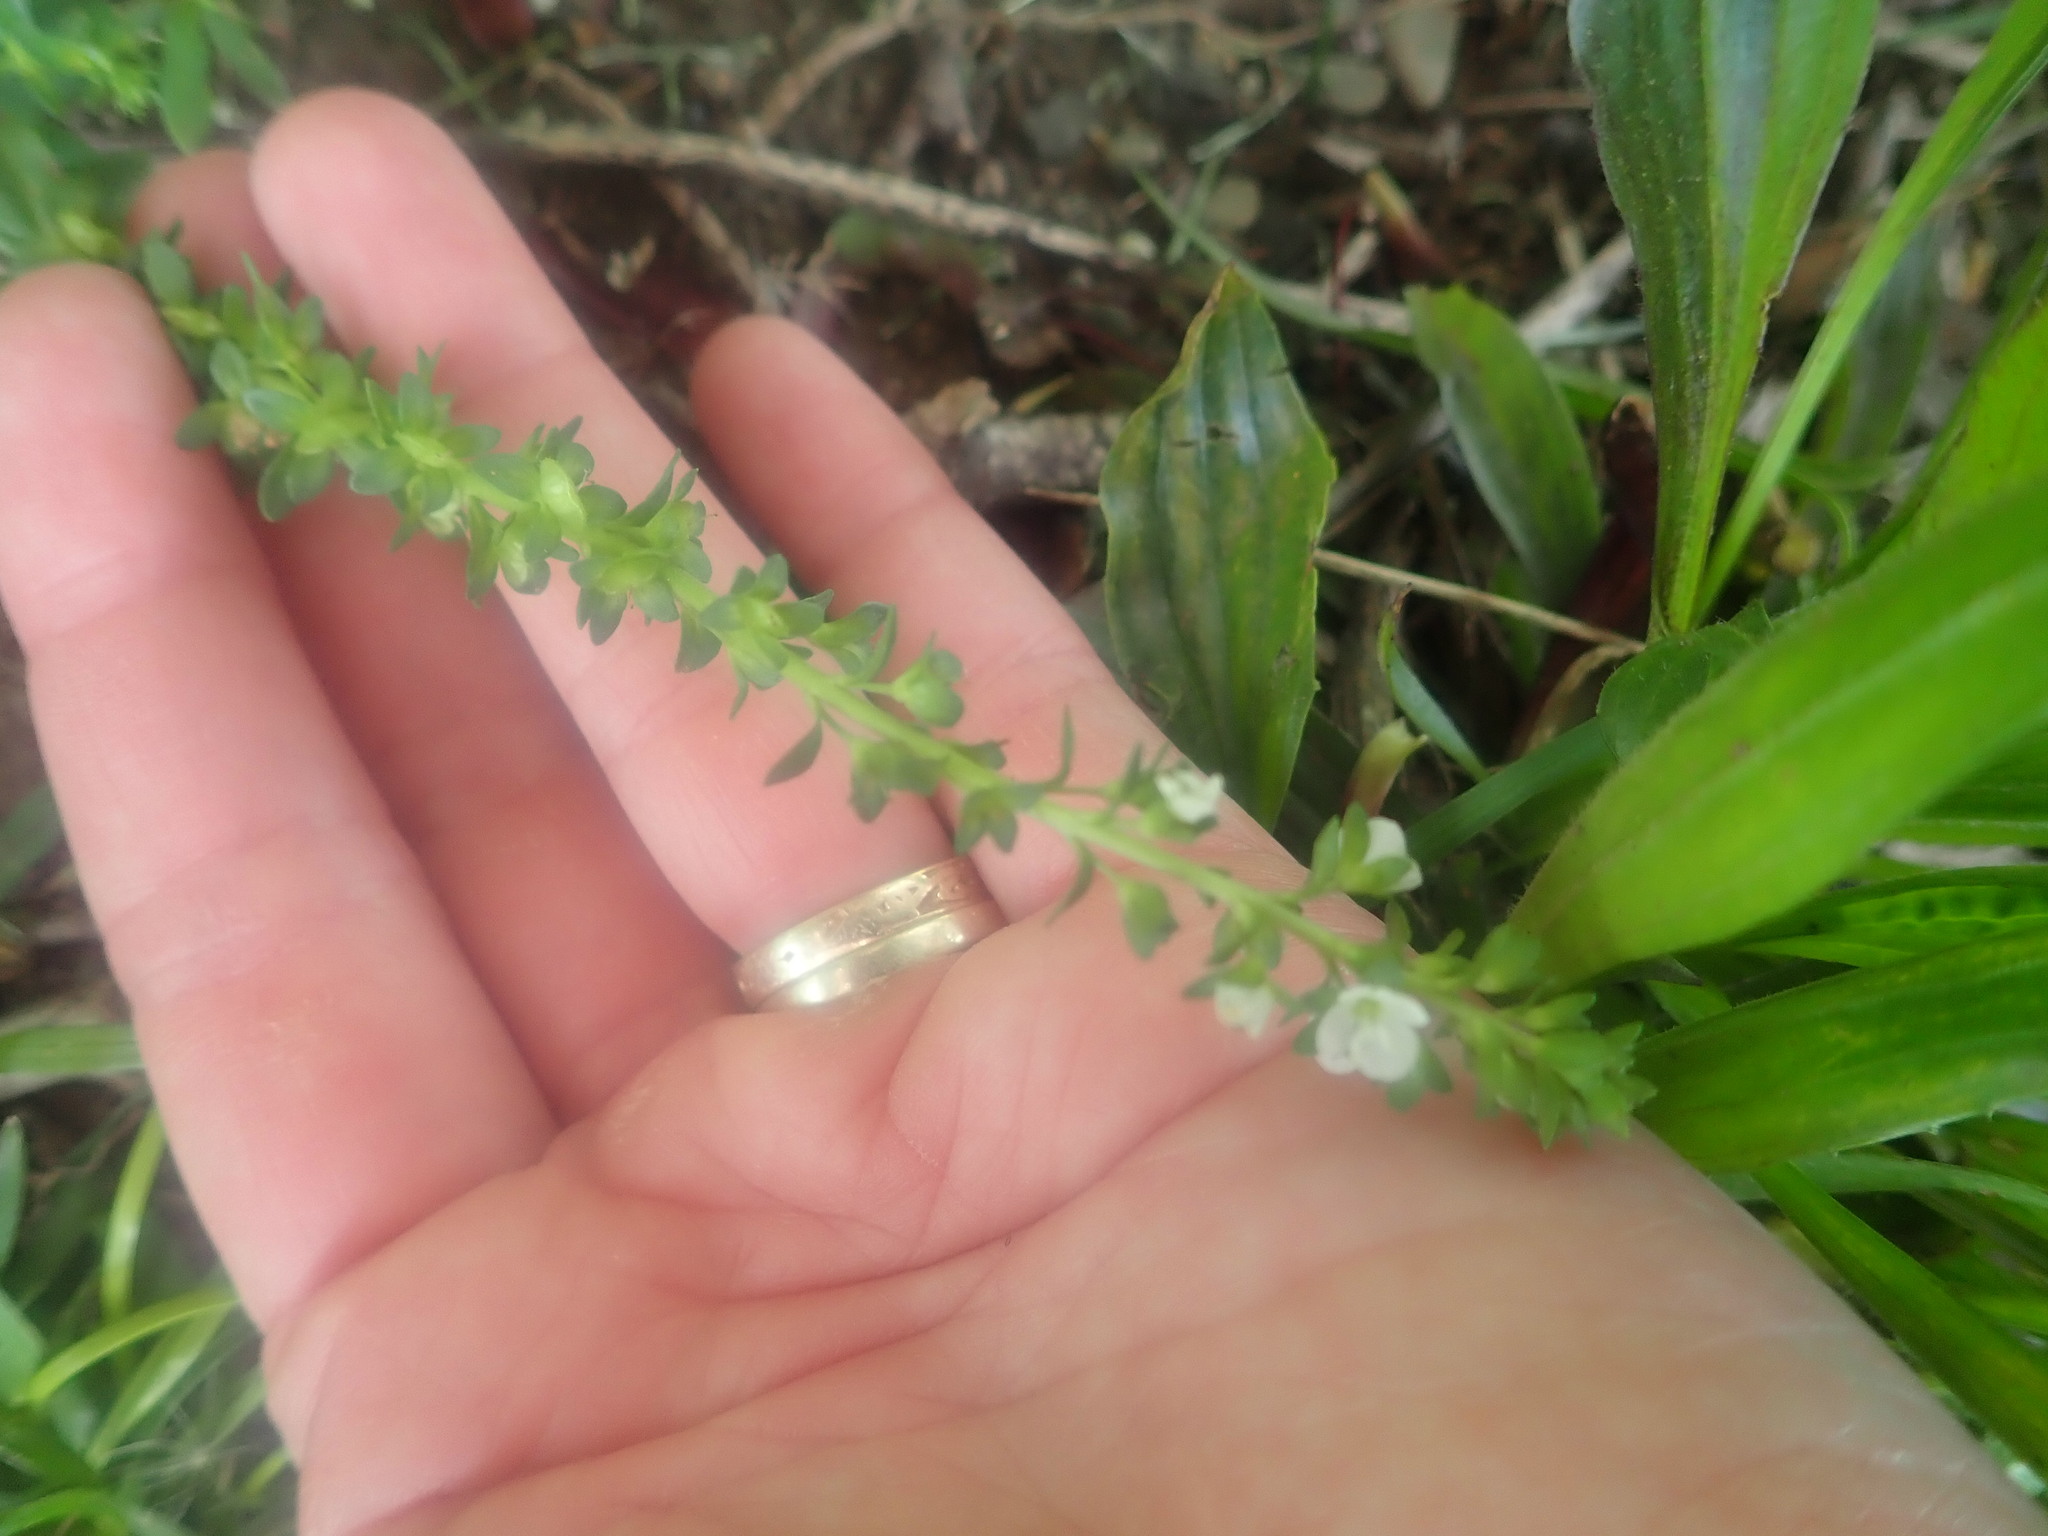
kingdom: Plantae
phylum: Tracheophyta
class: Magnoliopsida
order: Lamiales
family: Plantaginaceae
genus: Veronica
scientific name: Veronica serpyllifolia
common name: Thyme-leaved speedwell
